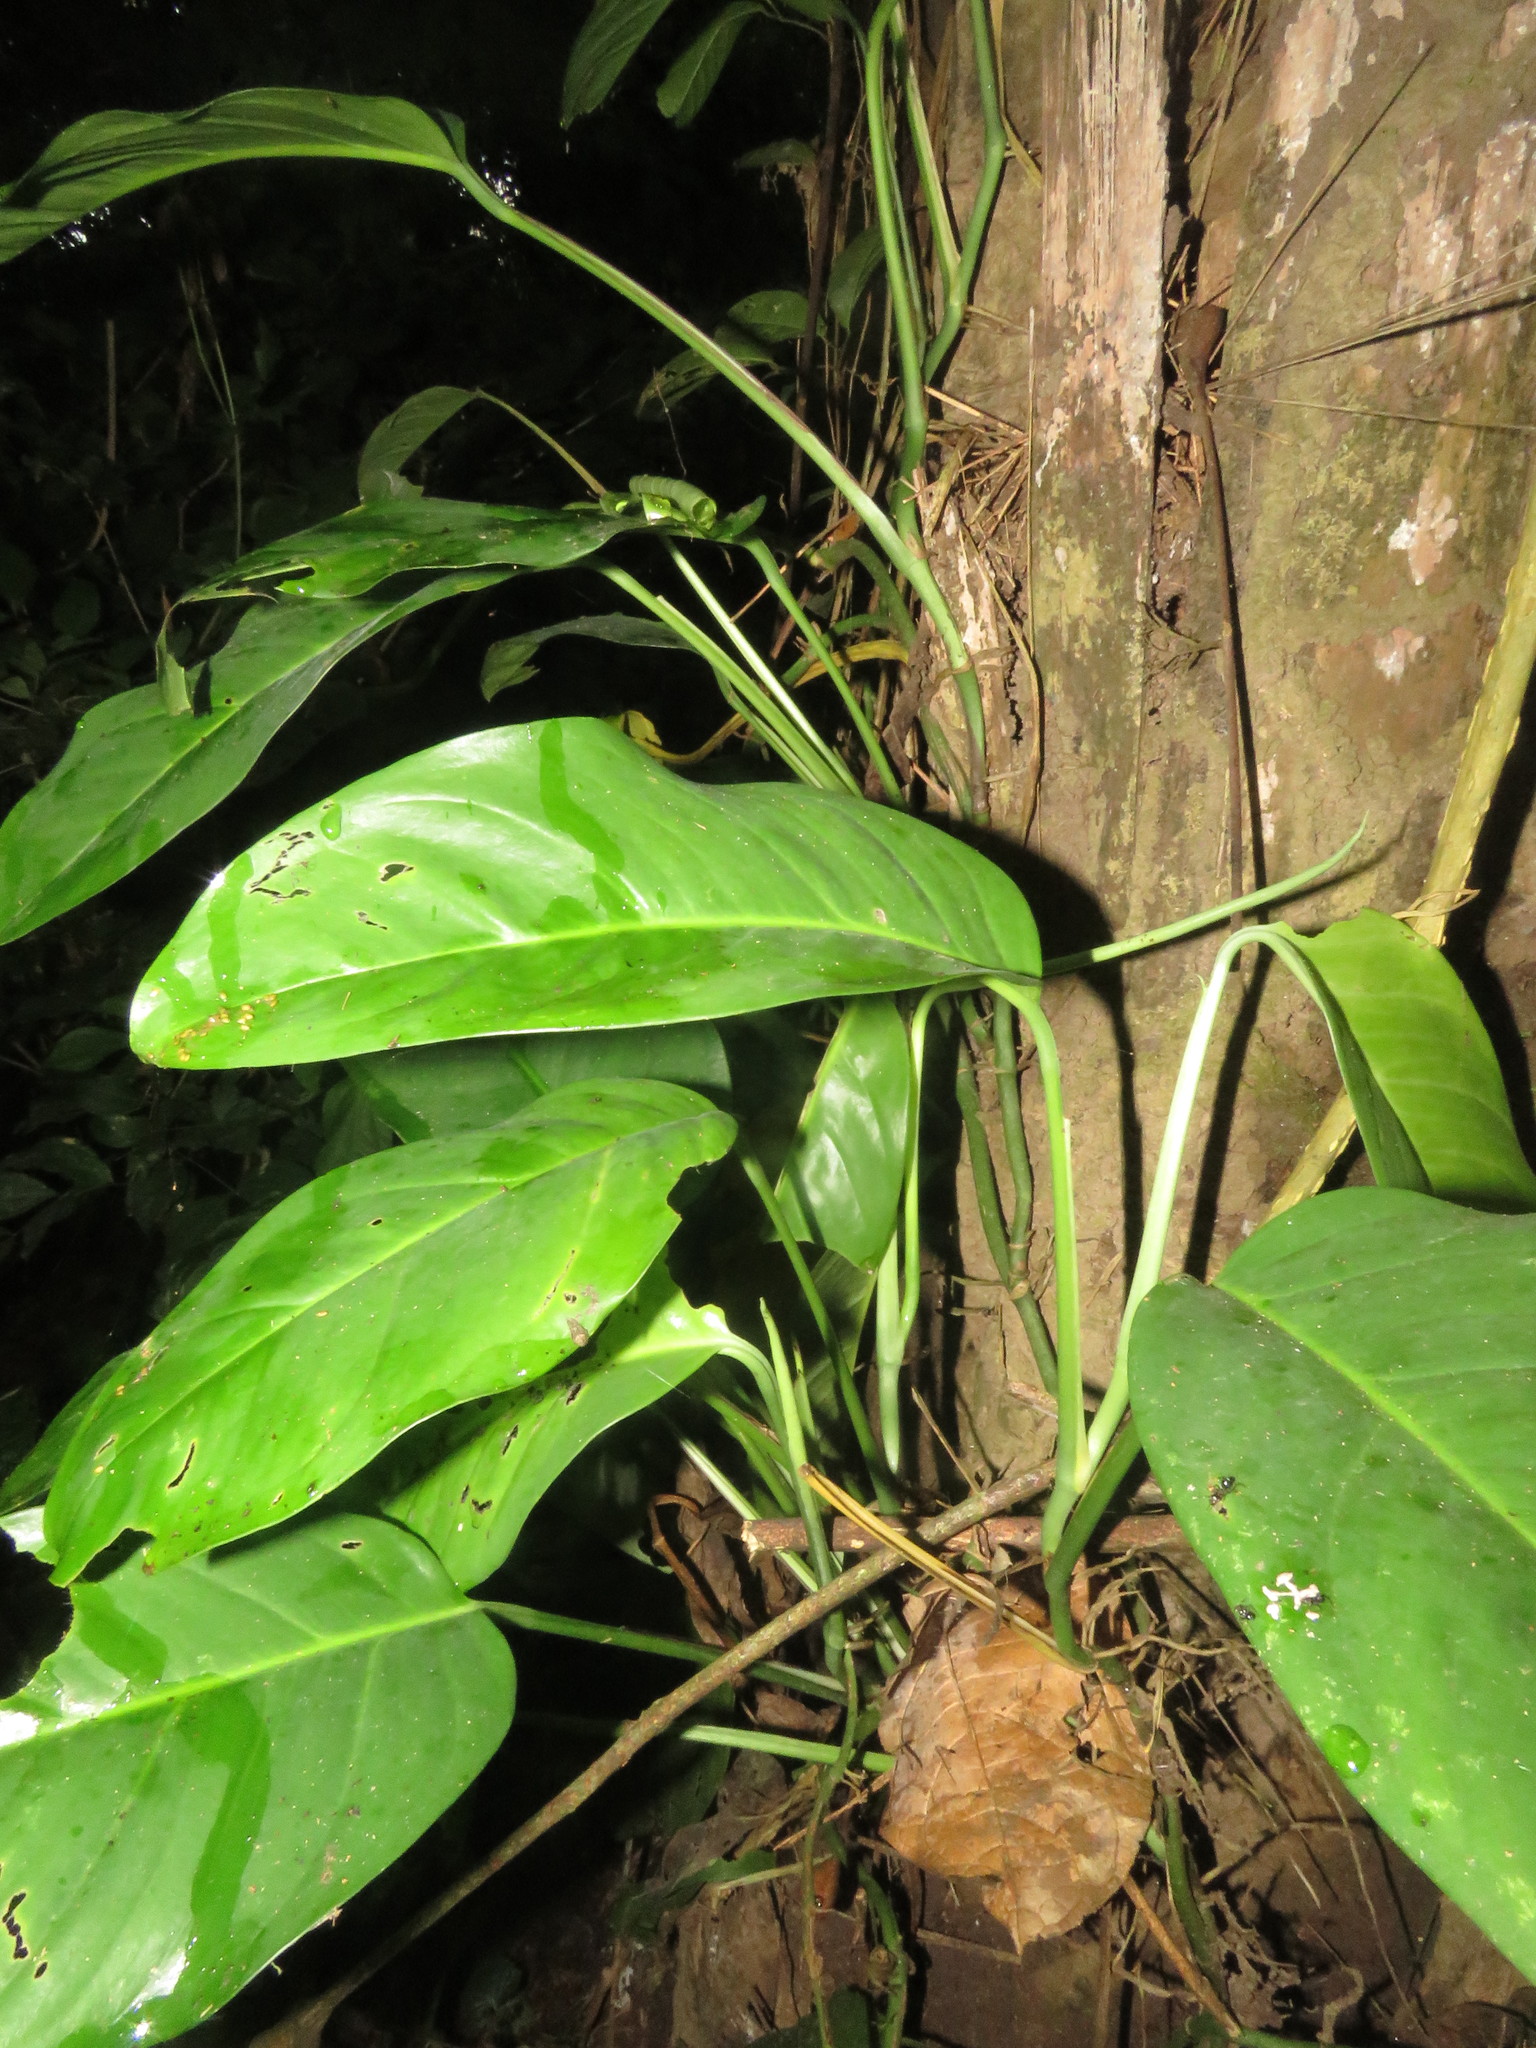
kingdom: Plantae
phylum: Tracheophyta
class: Liliopsida
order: Alismatales
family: Araceae
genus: Monstera
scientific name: Monstera obliqua
